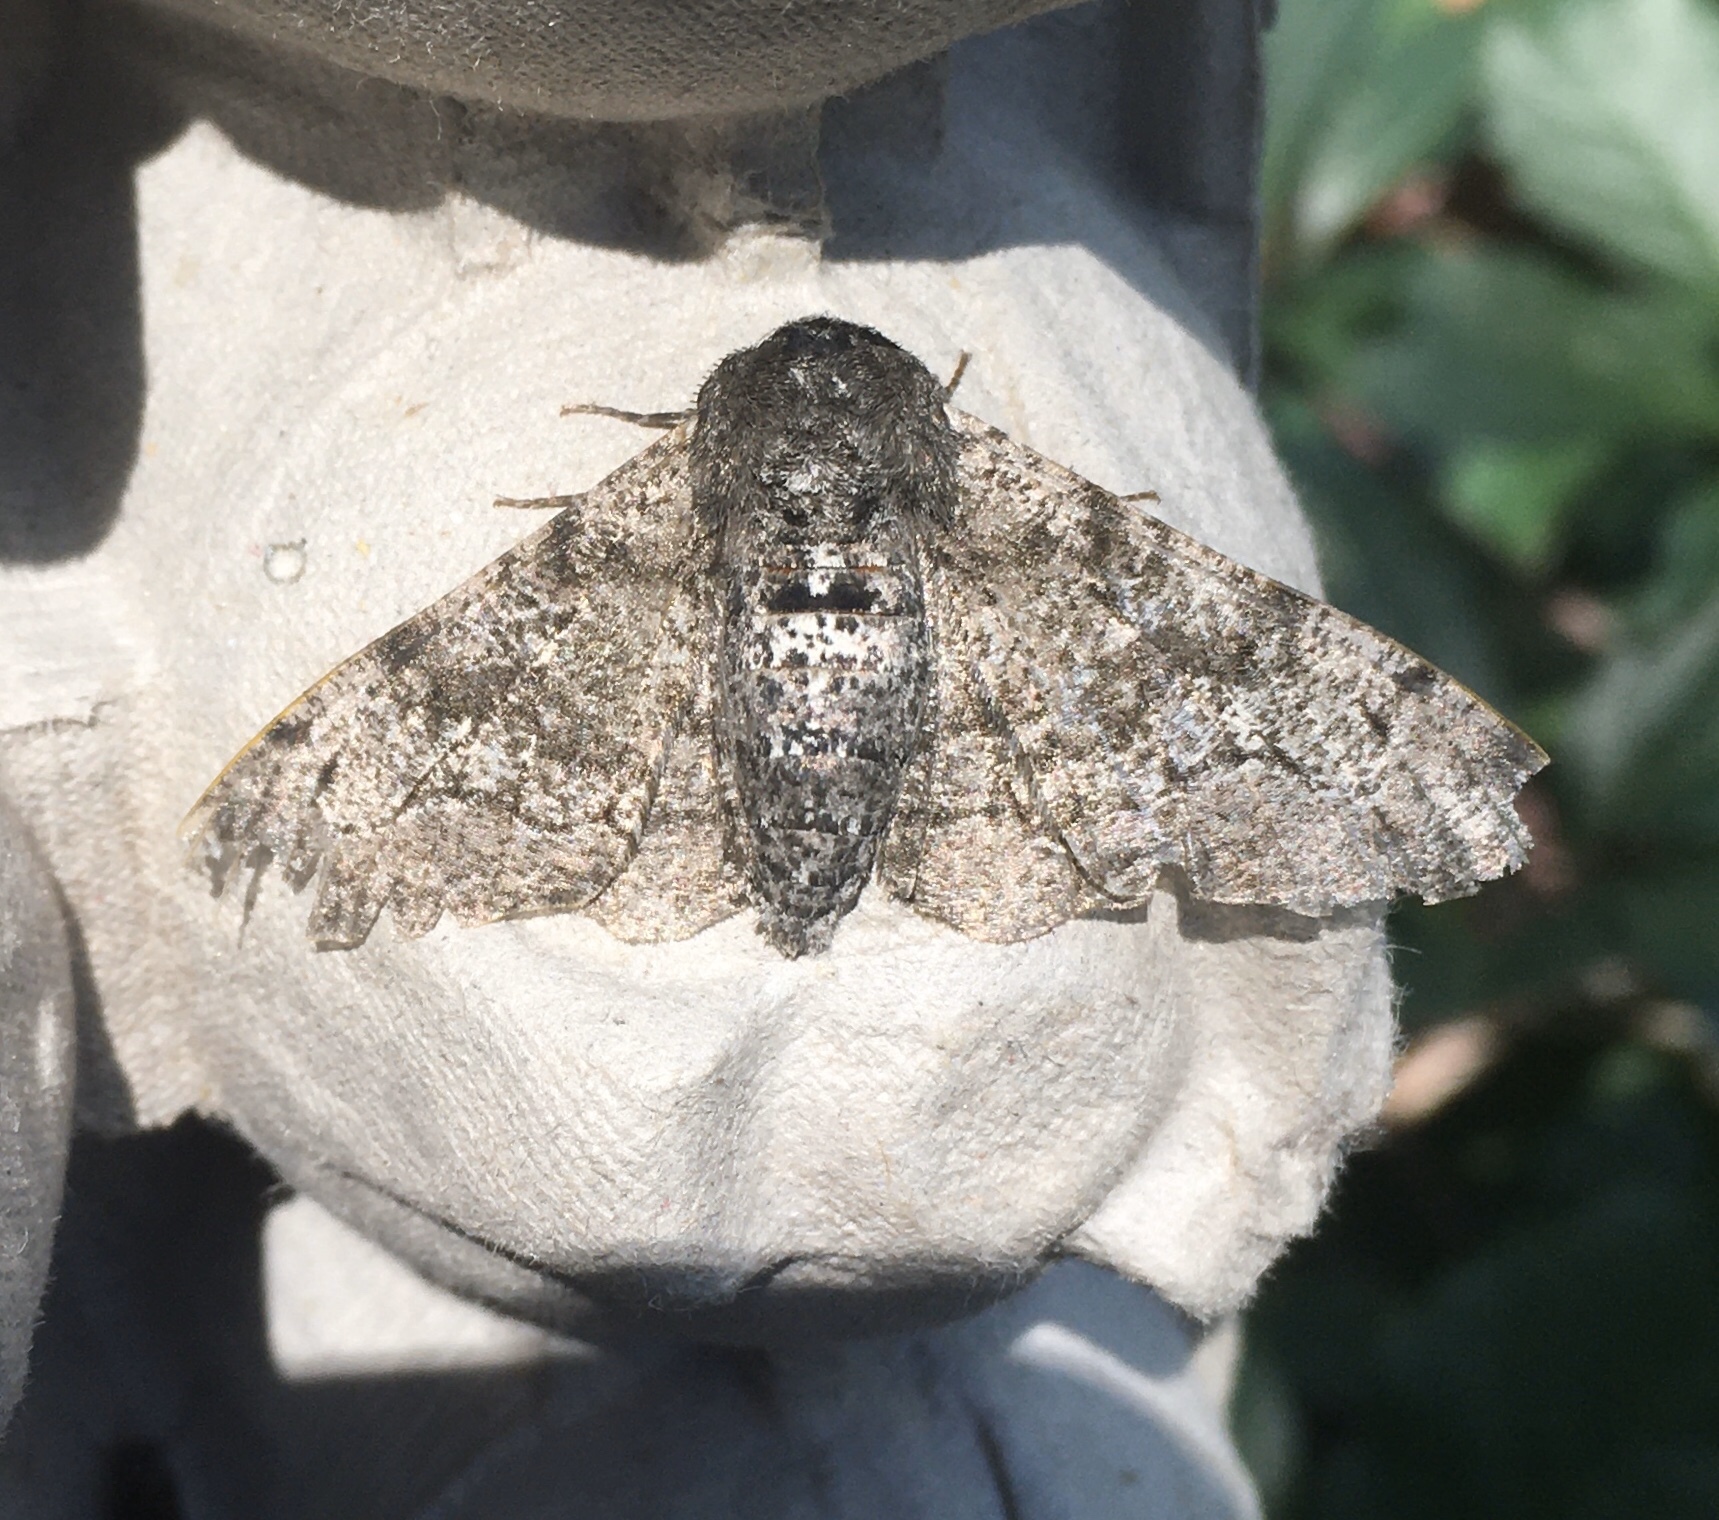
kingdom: Animalia
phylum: Arthropoda
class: Insecta
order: Lepidoptera
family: Geometridae
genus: Biston
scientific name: Biston betularia
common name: Peppered moth
